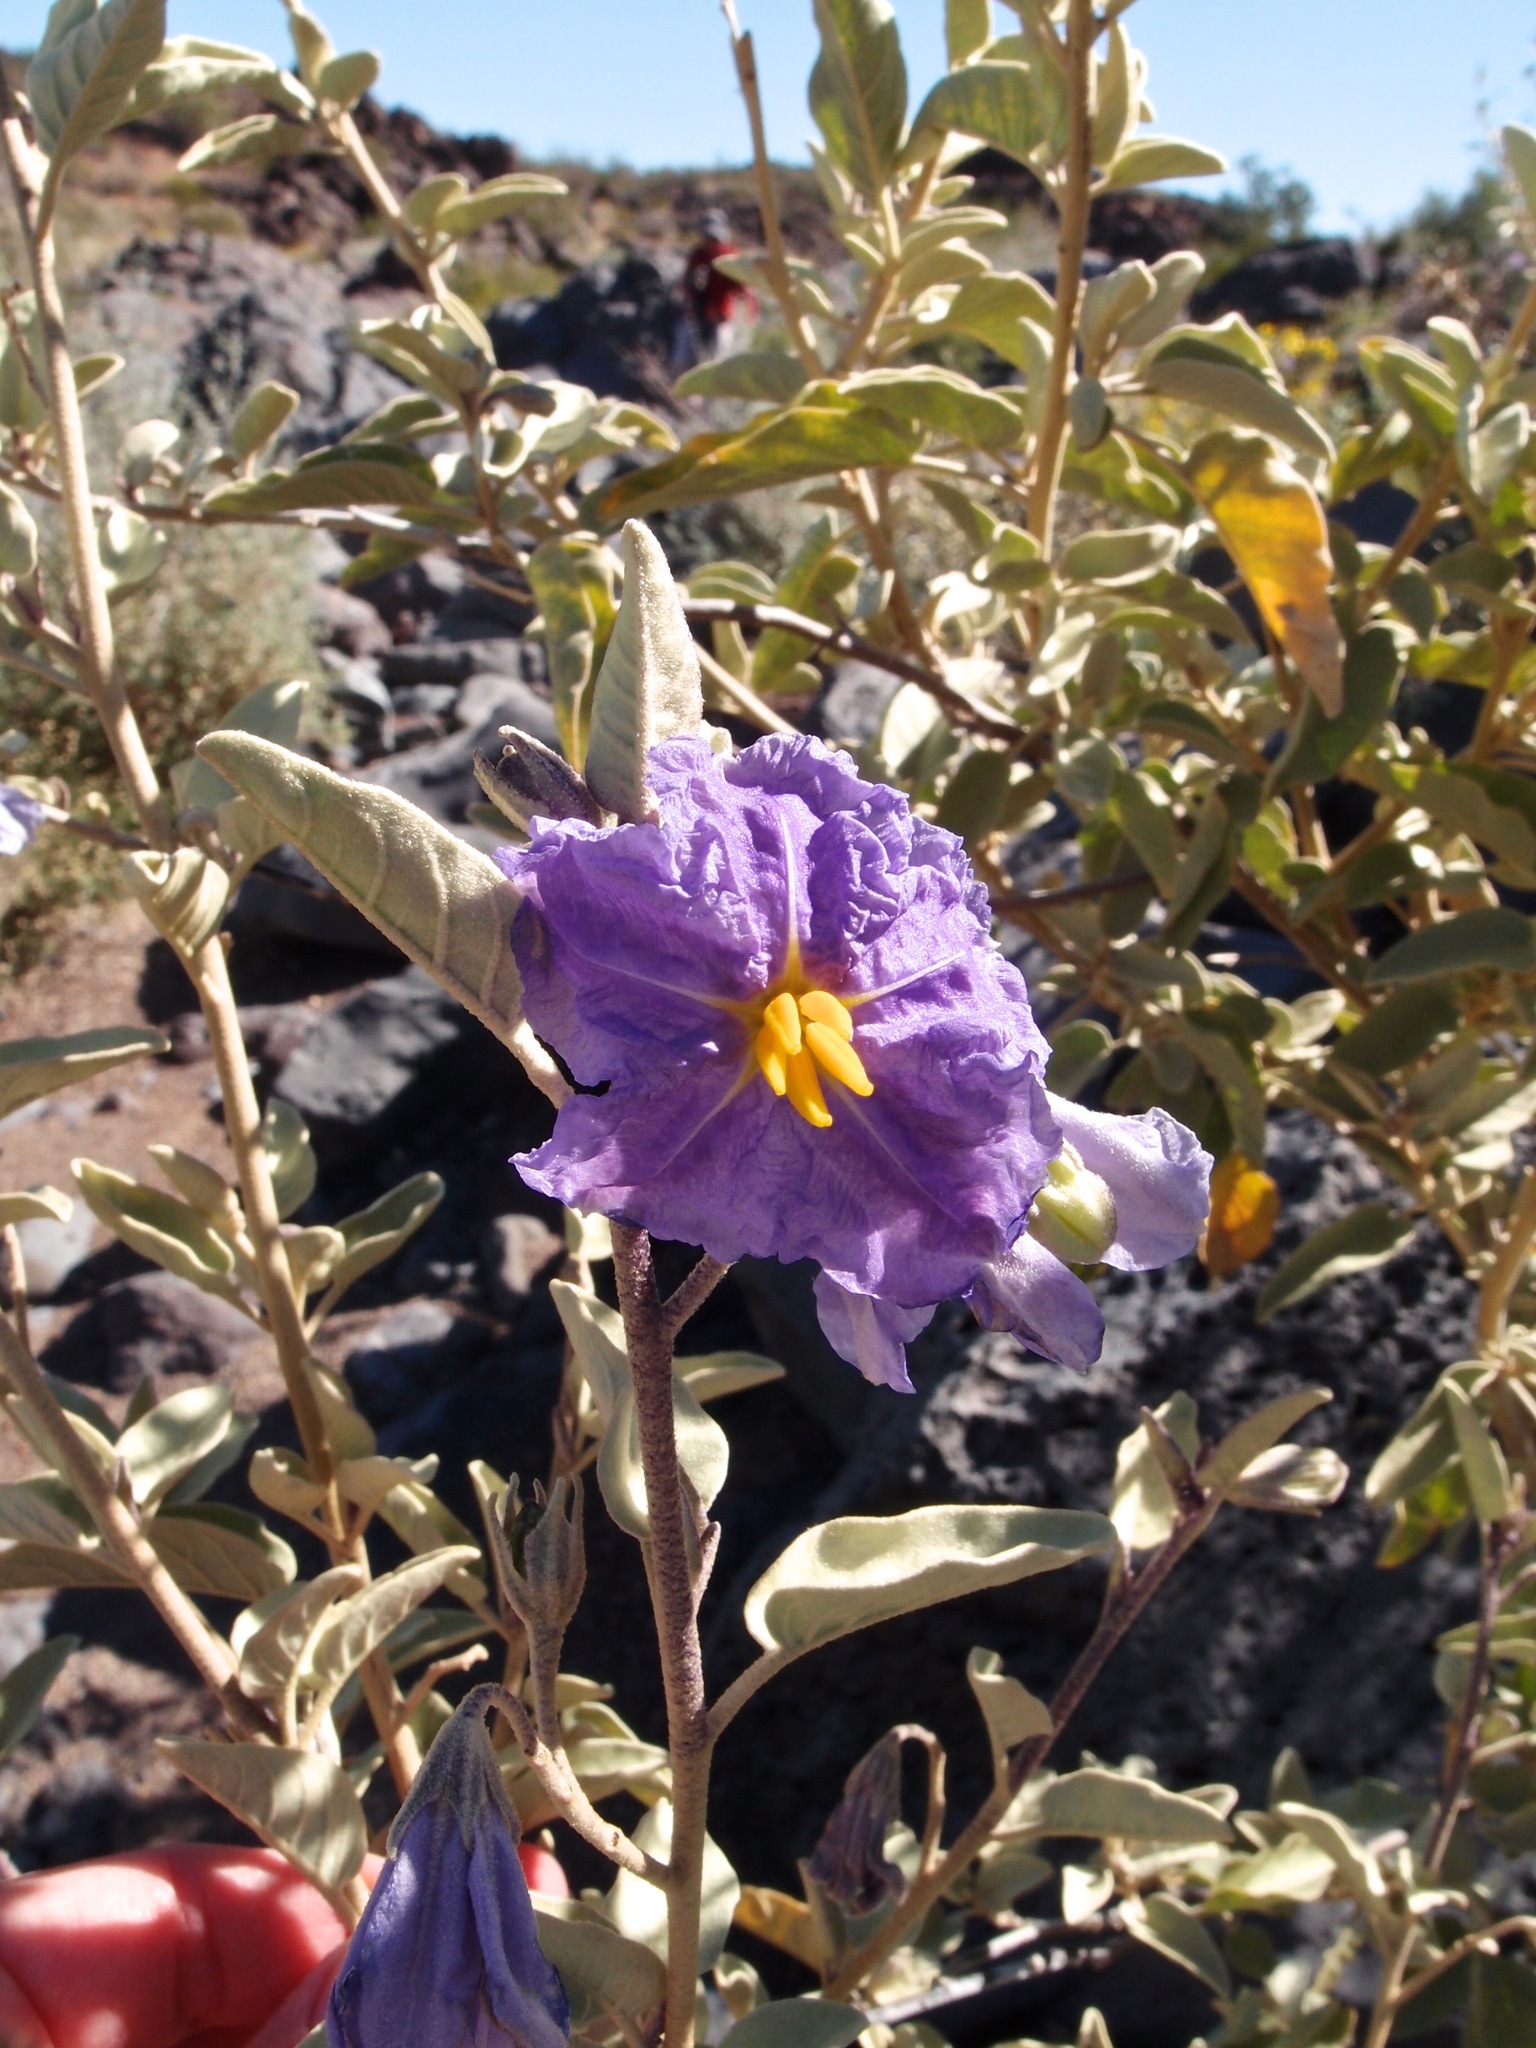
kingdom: Plantae
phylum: Tracheophyta
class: Magnoliopsida
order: Solanales
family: Solanaceae
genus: Solanum
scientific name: Solanum hindsianum
